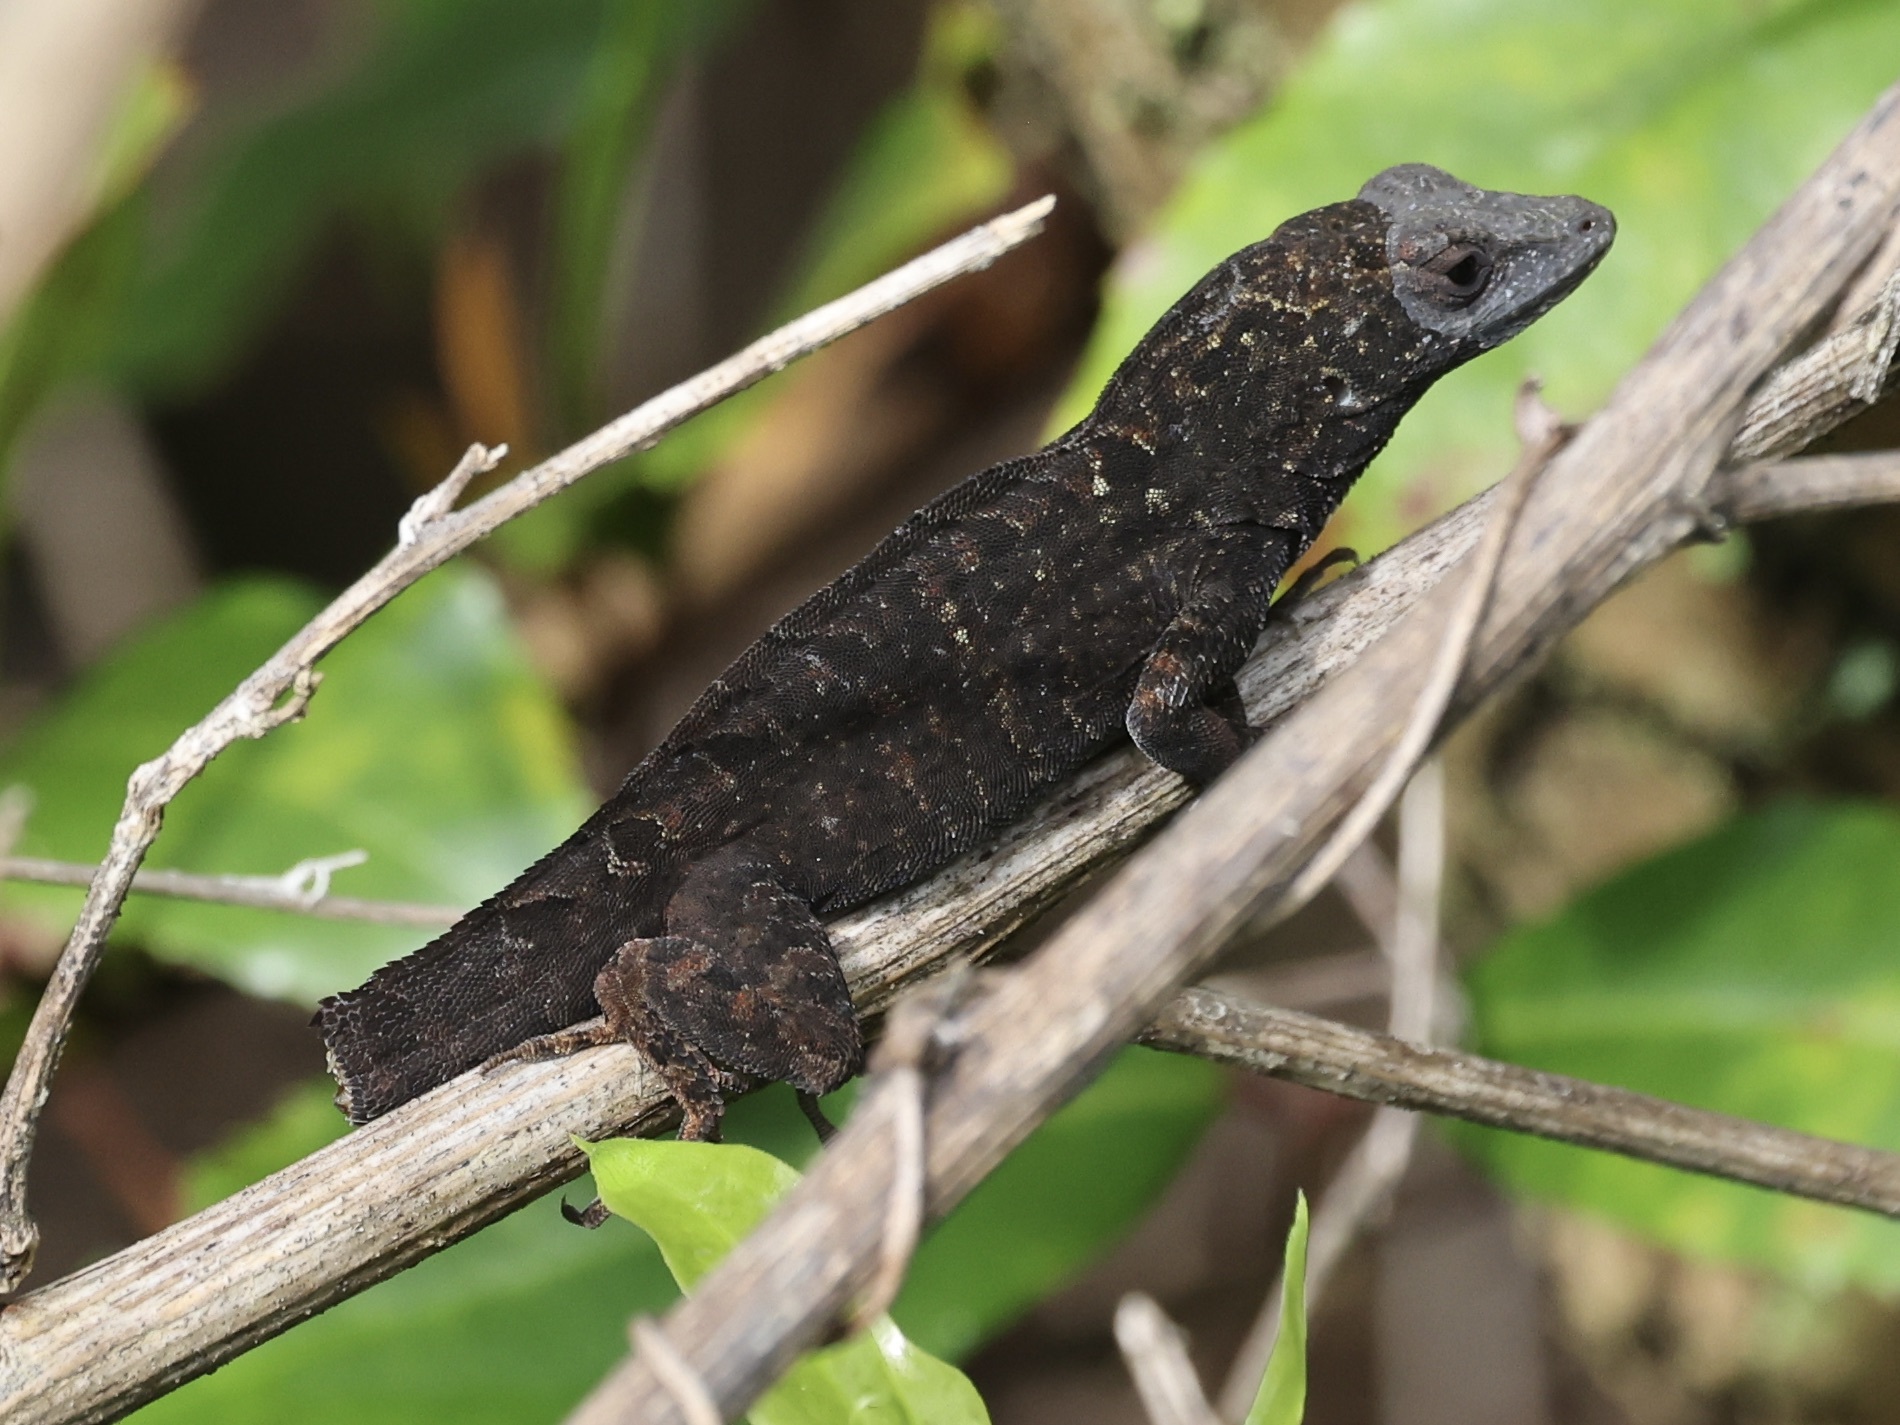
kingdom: Animalia
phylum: Chordata
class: Squamata
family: Dactyloidae
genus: Anolis
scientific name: Anolis sagrei
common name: Brown anole
